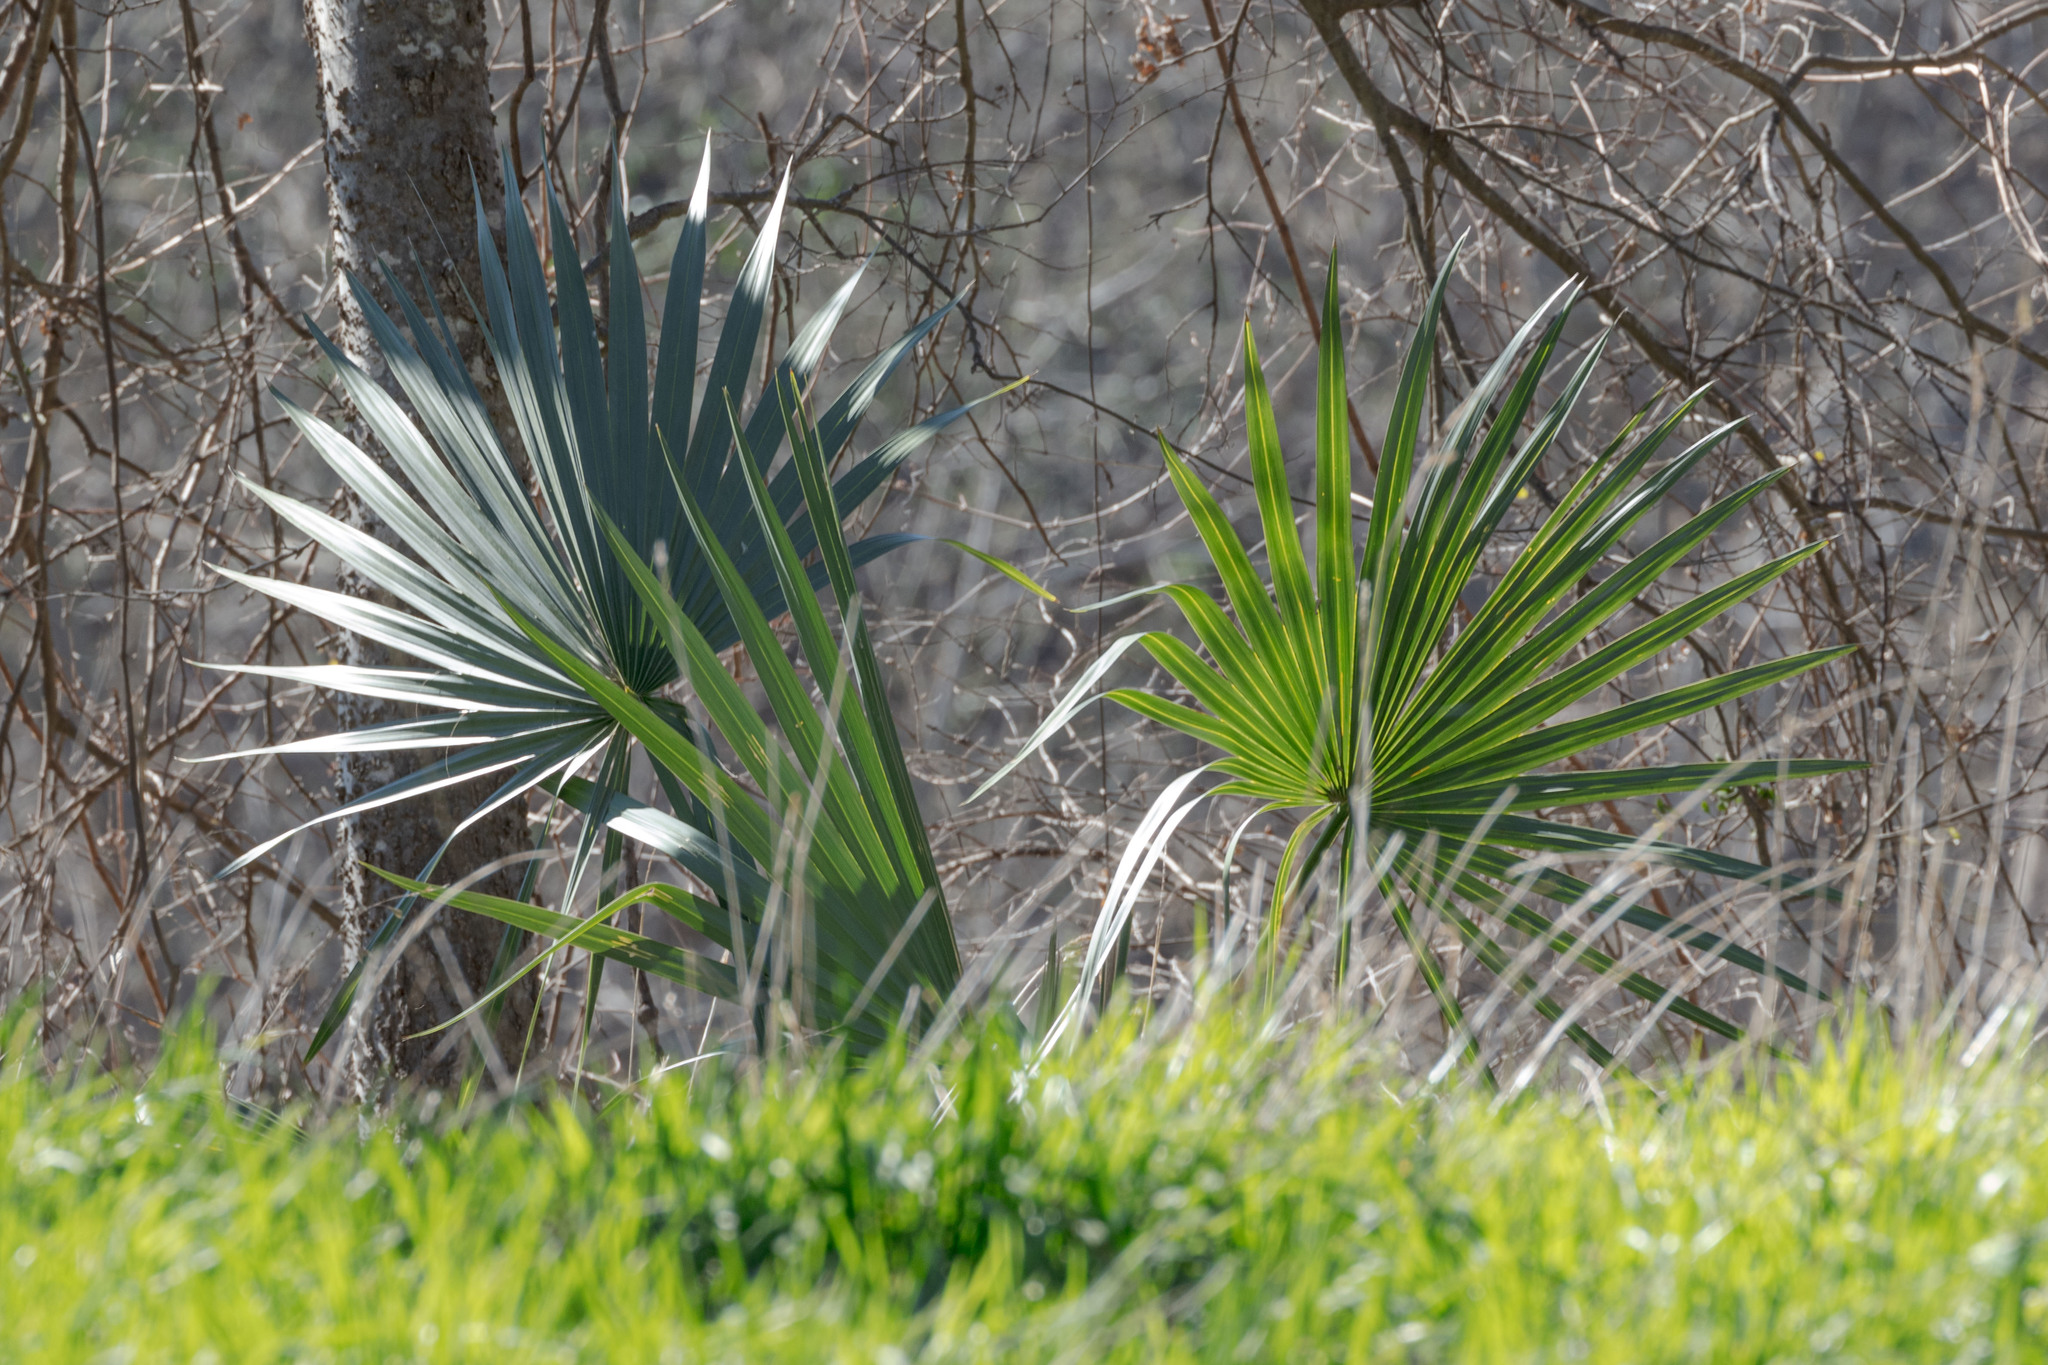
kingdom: Plantae
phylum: Tracheophyta
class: Liliopsida
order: Arecales
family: Arecaceae
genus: Sabal
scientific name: Sabal minor
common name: Dwarf palmetto
